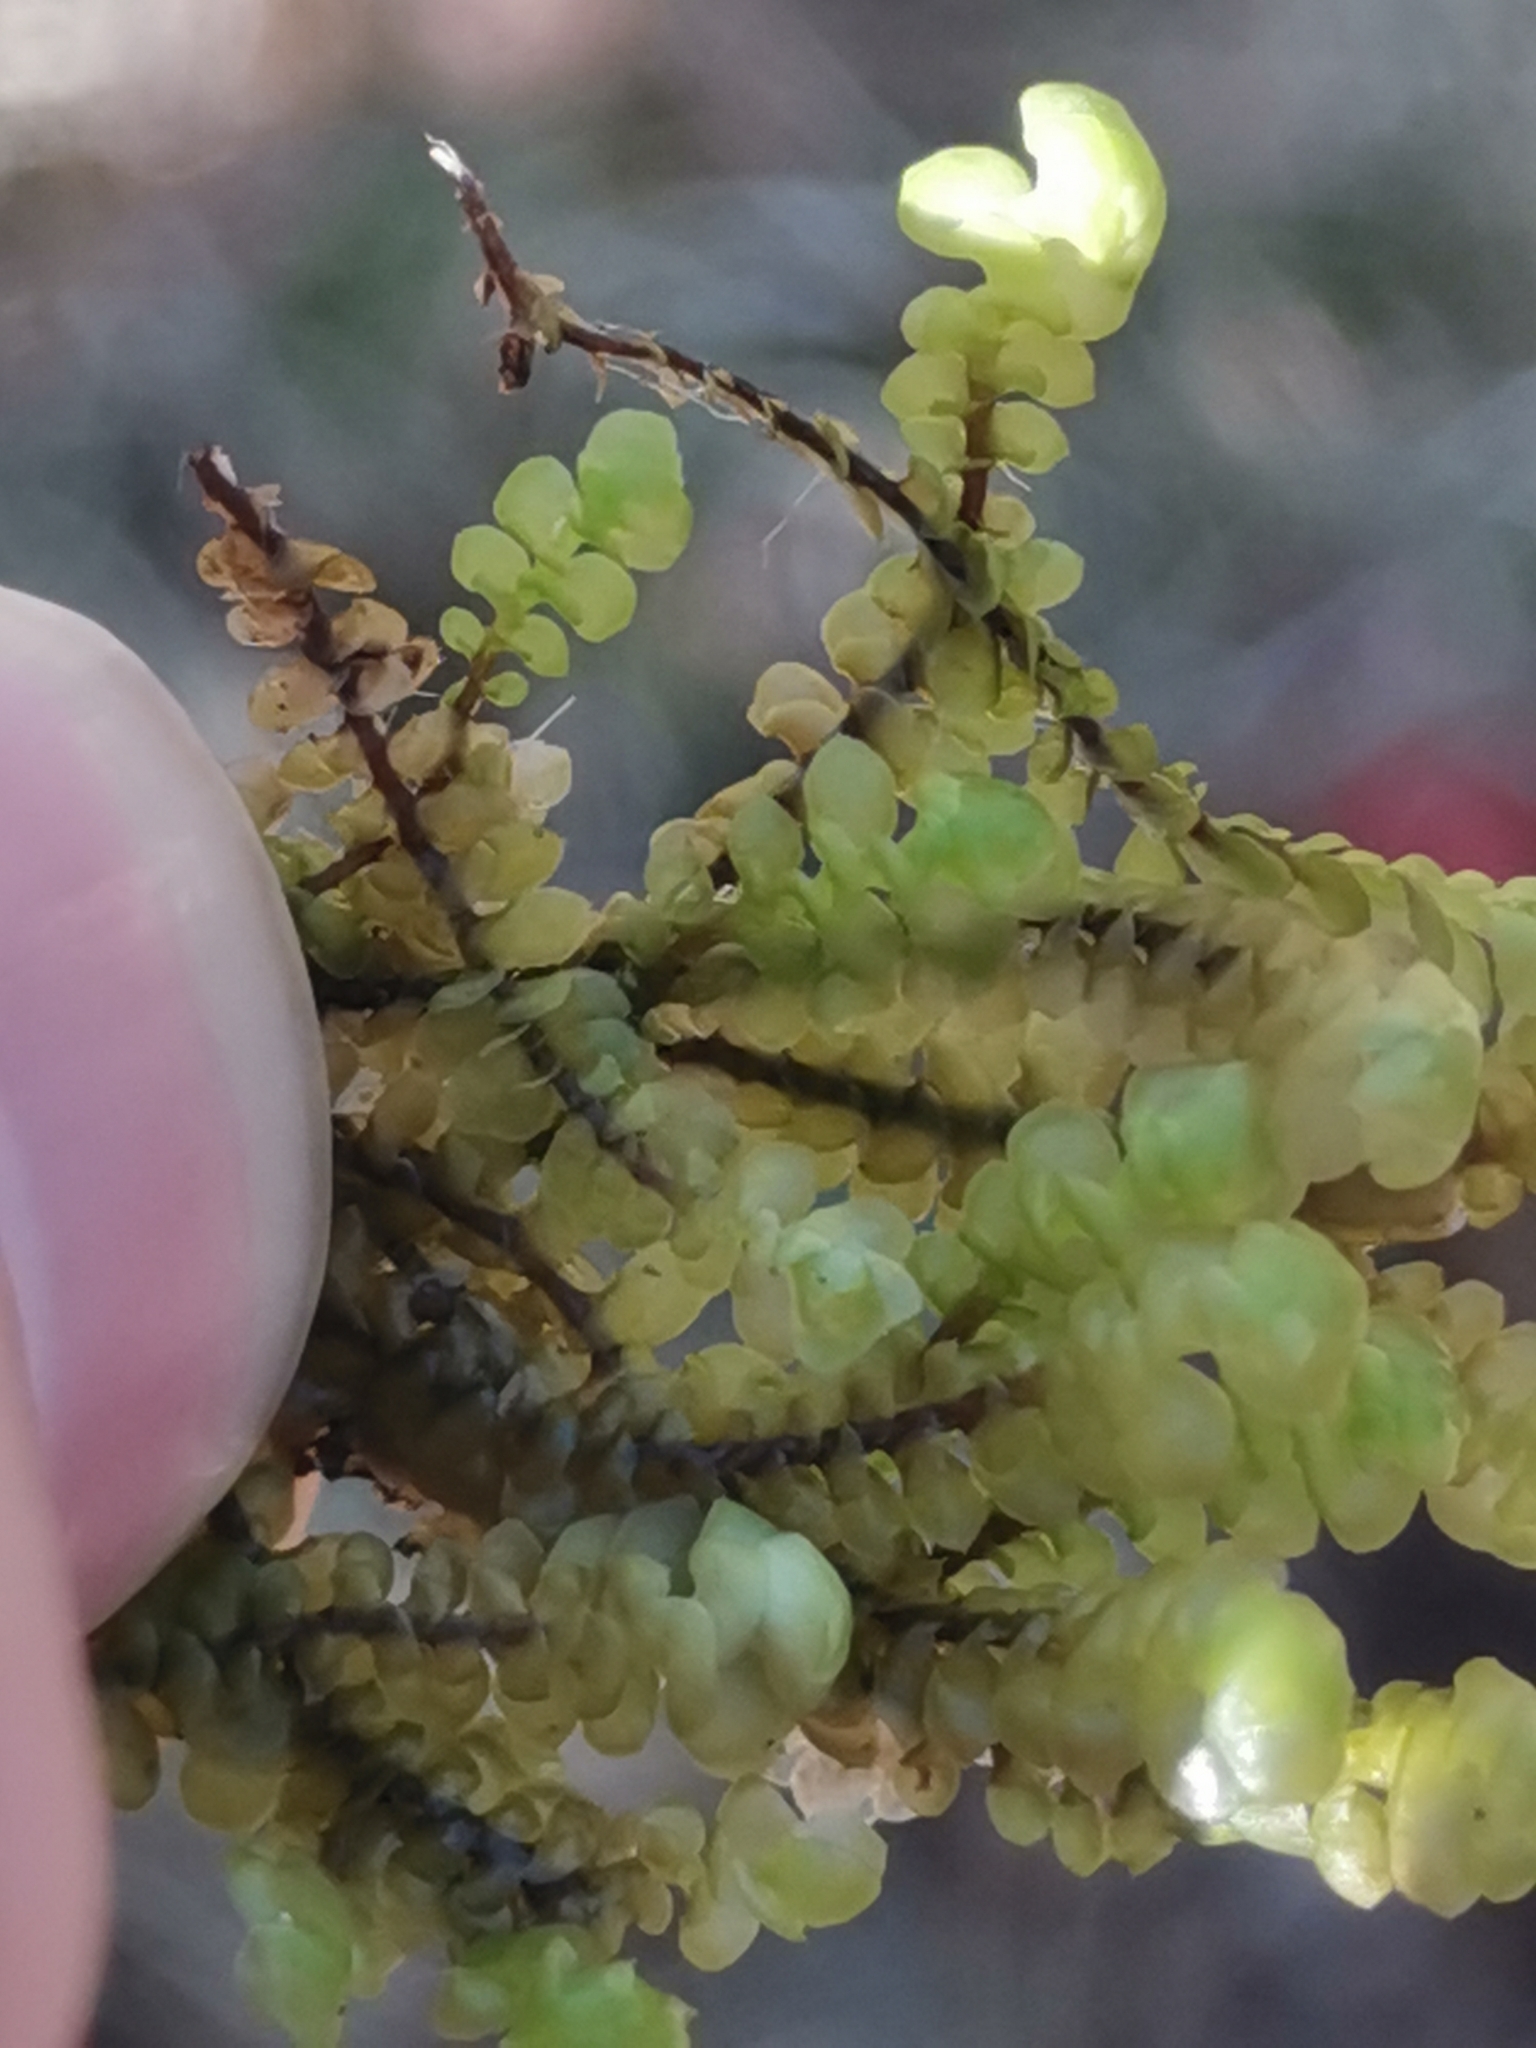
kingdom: Plantae
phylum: Marchantiophyta
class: Jungermanniopsida
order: Jungermanniales
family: Scapaniaceae
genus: Scapania
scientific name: Scapania aspera
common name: Rough earwort
